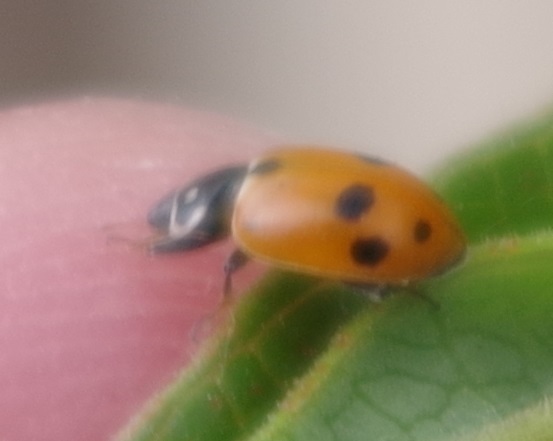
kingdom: Animalia
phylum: Arthropoda
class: Insecta
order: Coleoptera
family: Coccinellidae
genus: Hippodamia
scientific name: Hippodamia variegata
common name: Ladybird beetle
